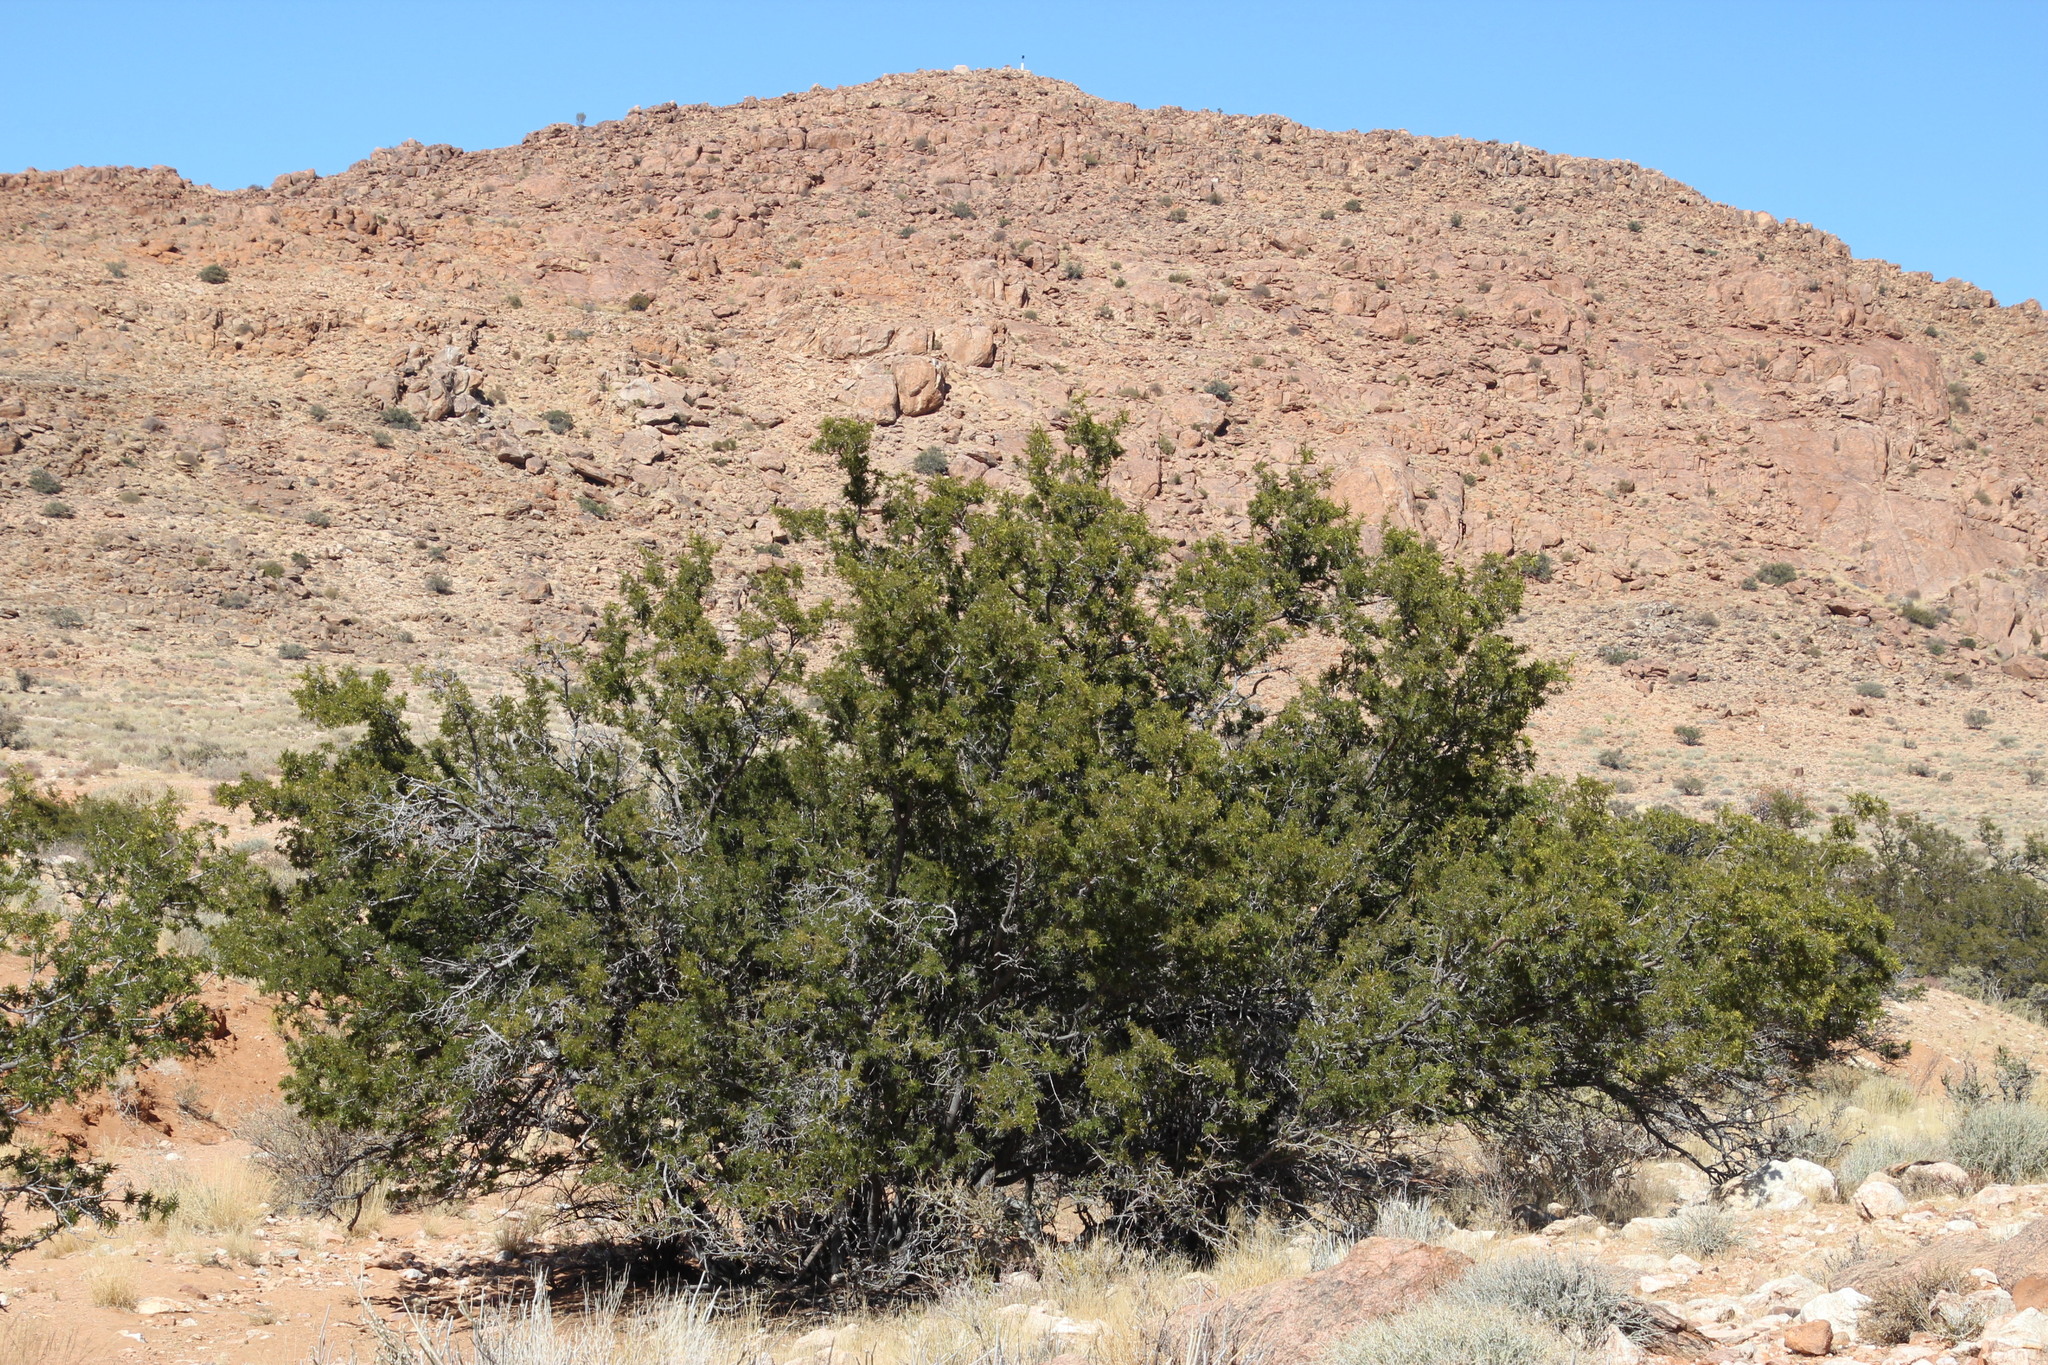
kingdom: Plantae
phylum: Tracheophyta
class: Magnoliopsida
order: Fabales
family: Fabaceae
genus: Schotia
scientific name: Schotia afra
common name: Hottentot's bean
